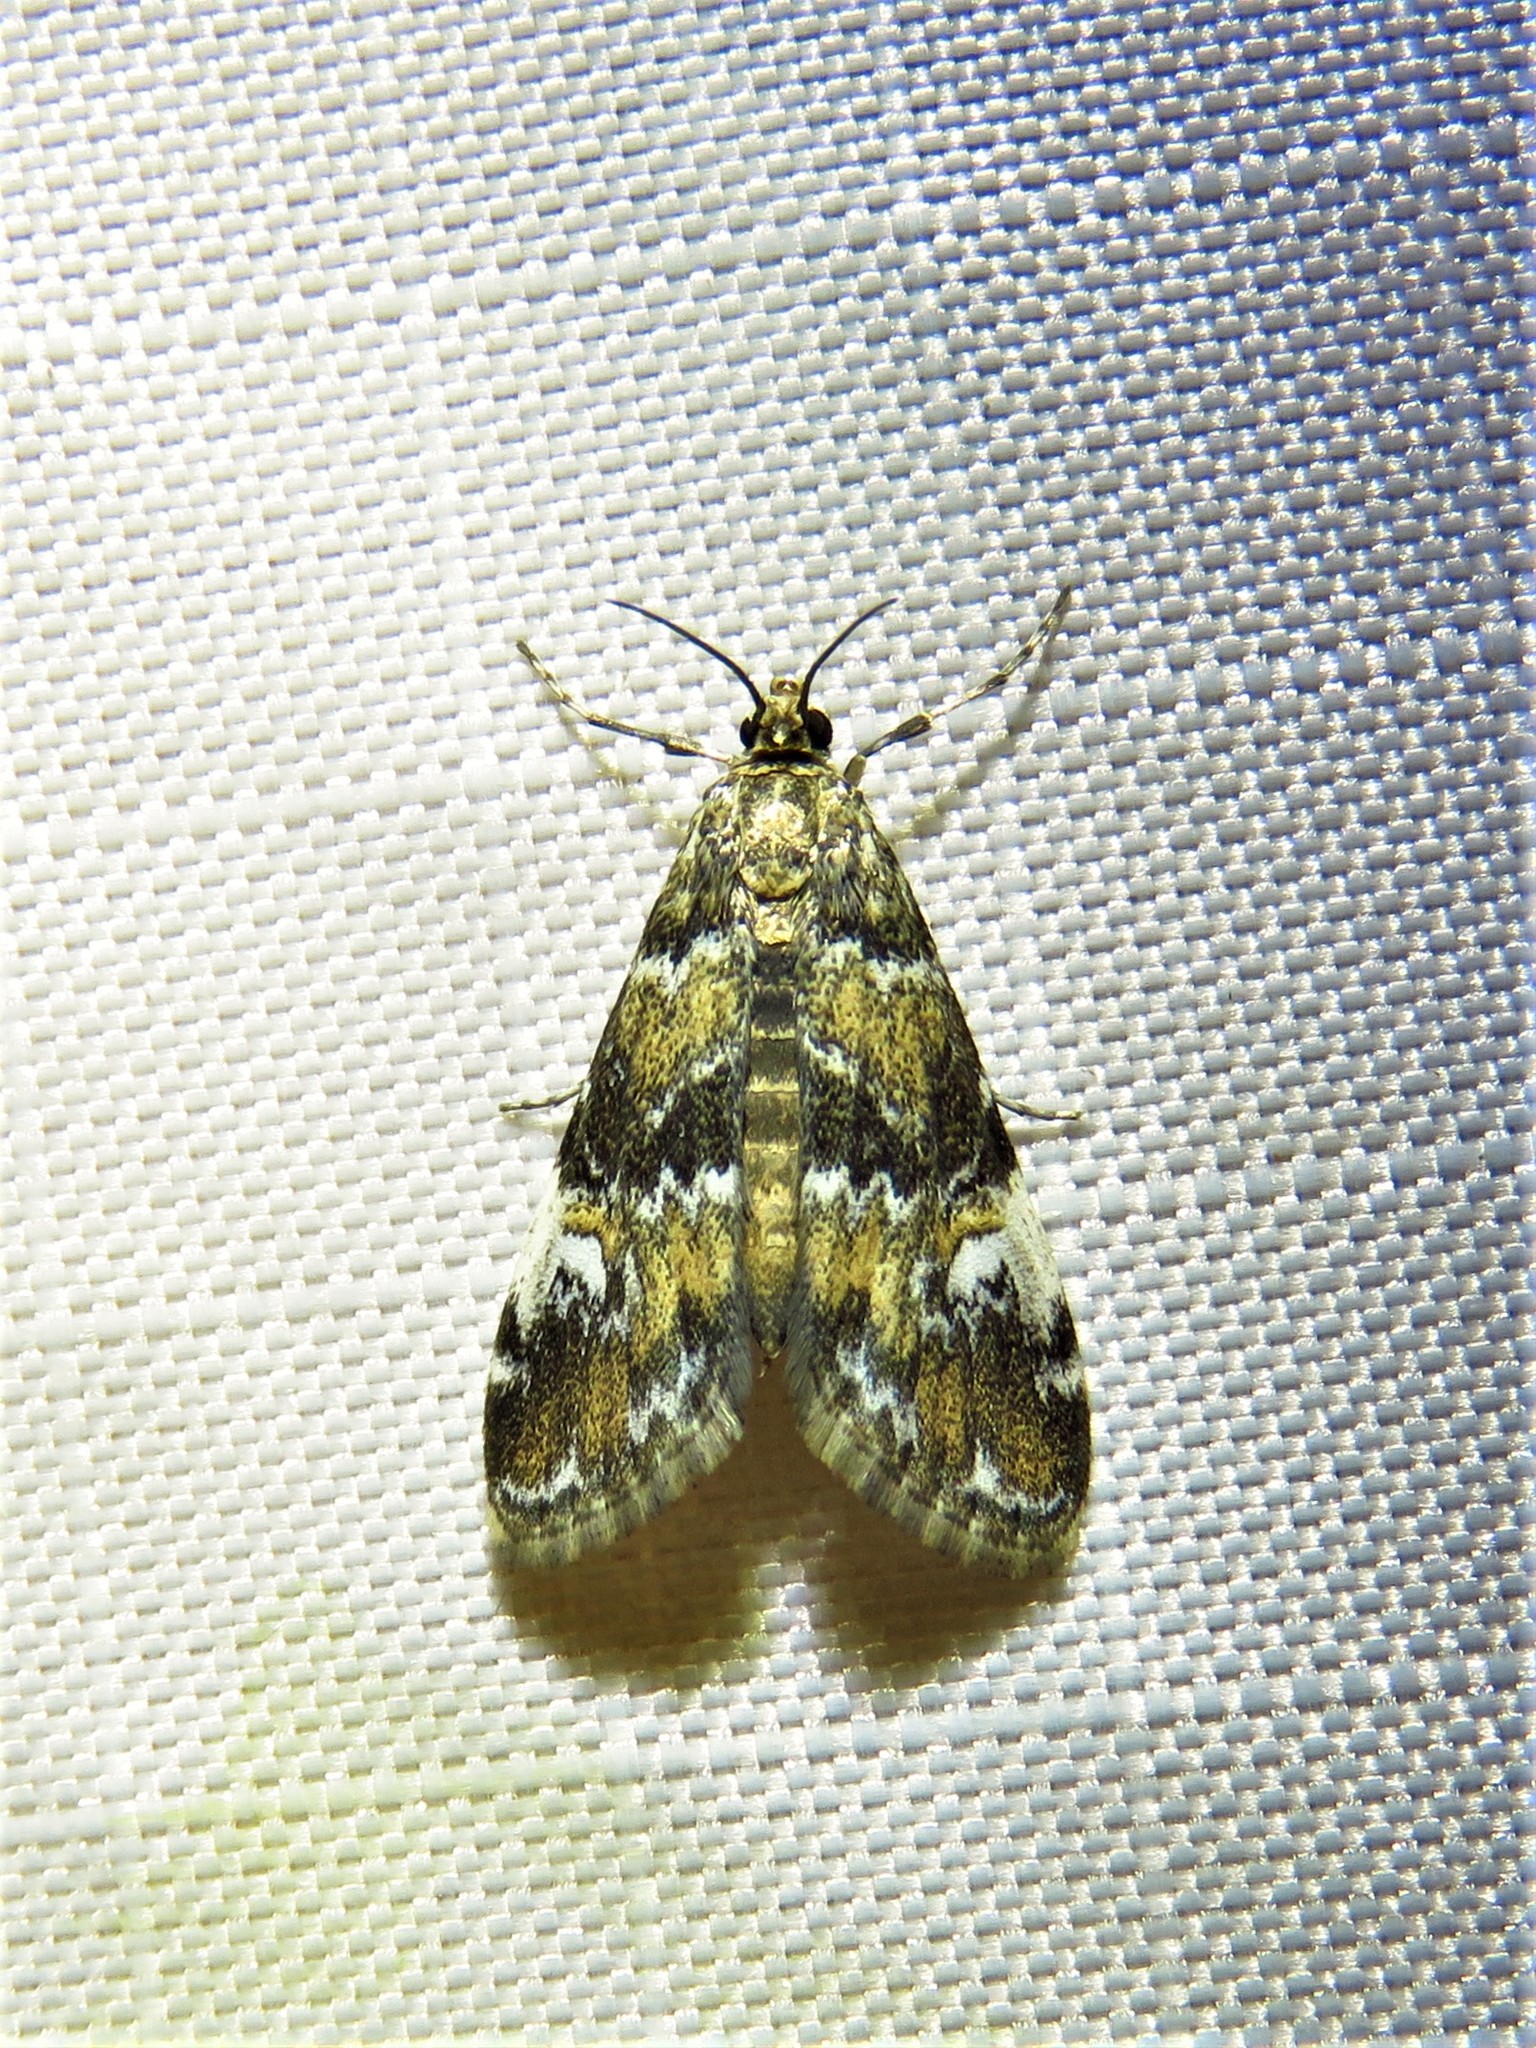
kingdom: Animalia
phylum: Arthropoda
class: Insecta
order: Lepidoptera
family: Crambidae
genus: Elophila
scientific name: Elophila obliteralis
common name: Waterlily leafcutter moth
